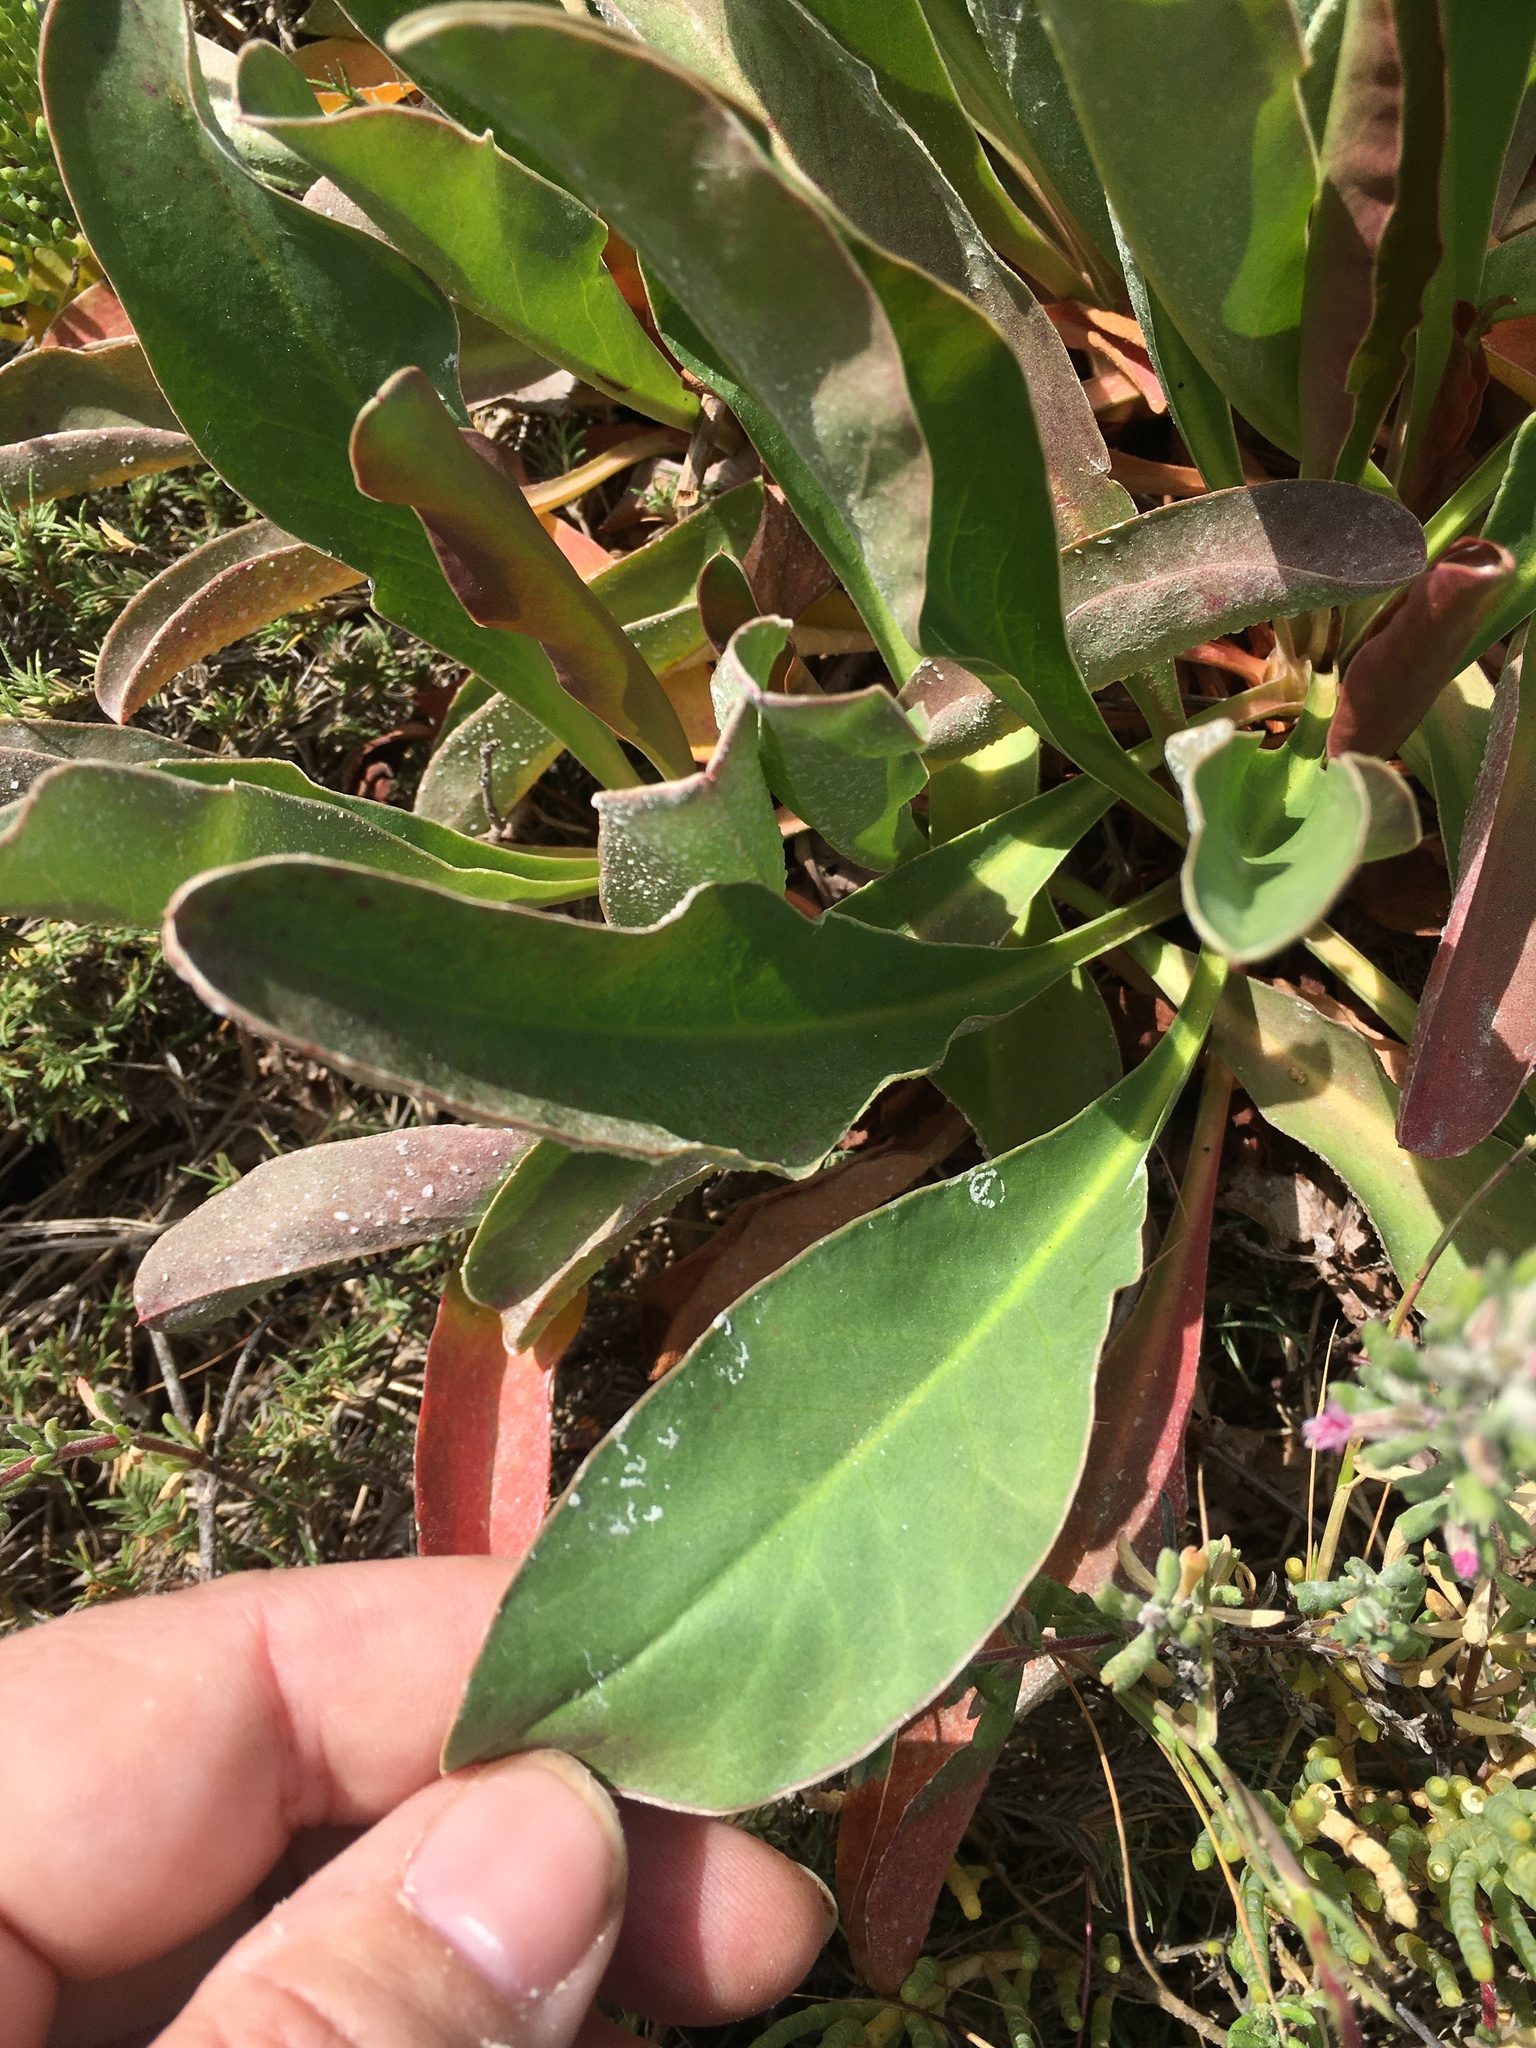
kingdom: Plantae
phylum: Tracheophyta
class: Magnoliopsida
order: Caryophyllales
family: Plumbaginaceae
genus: Limonium
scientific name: Limonium californicum
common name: Marsh-rosemary
